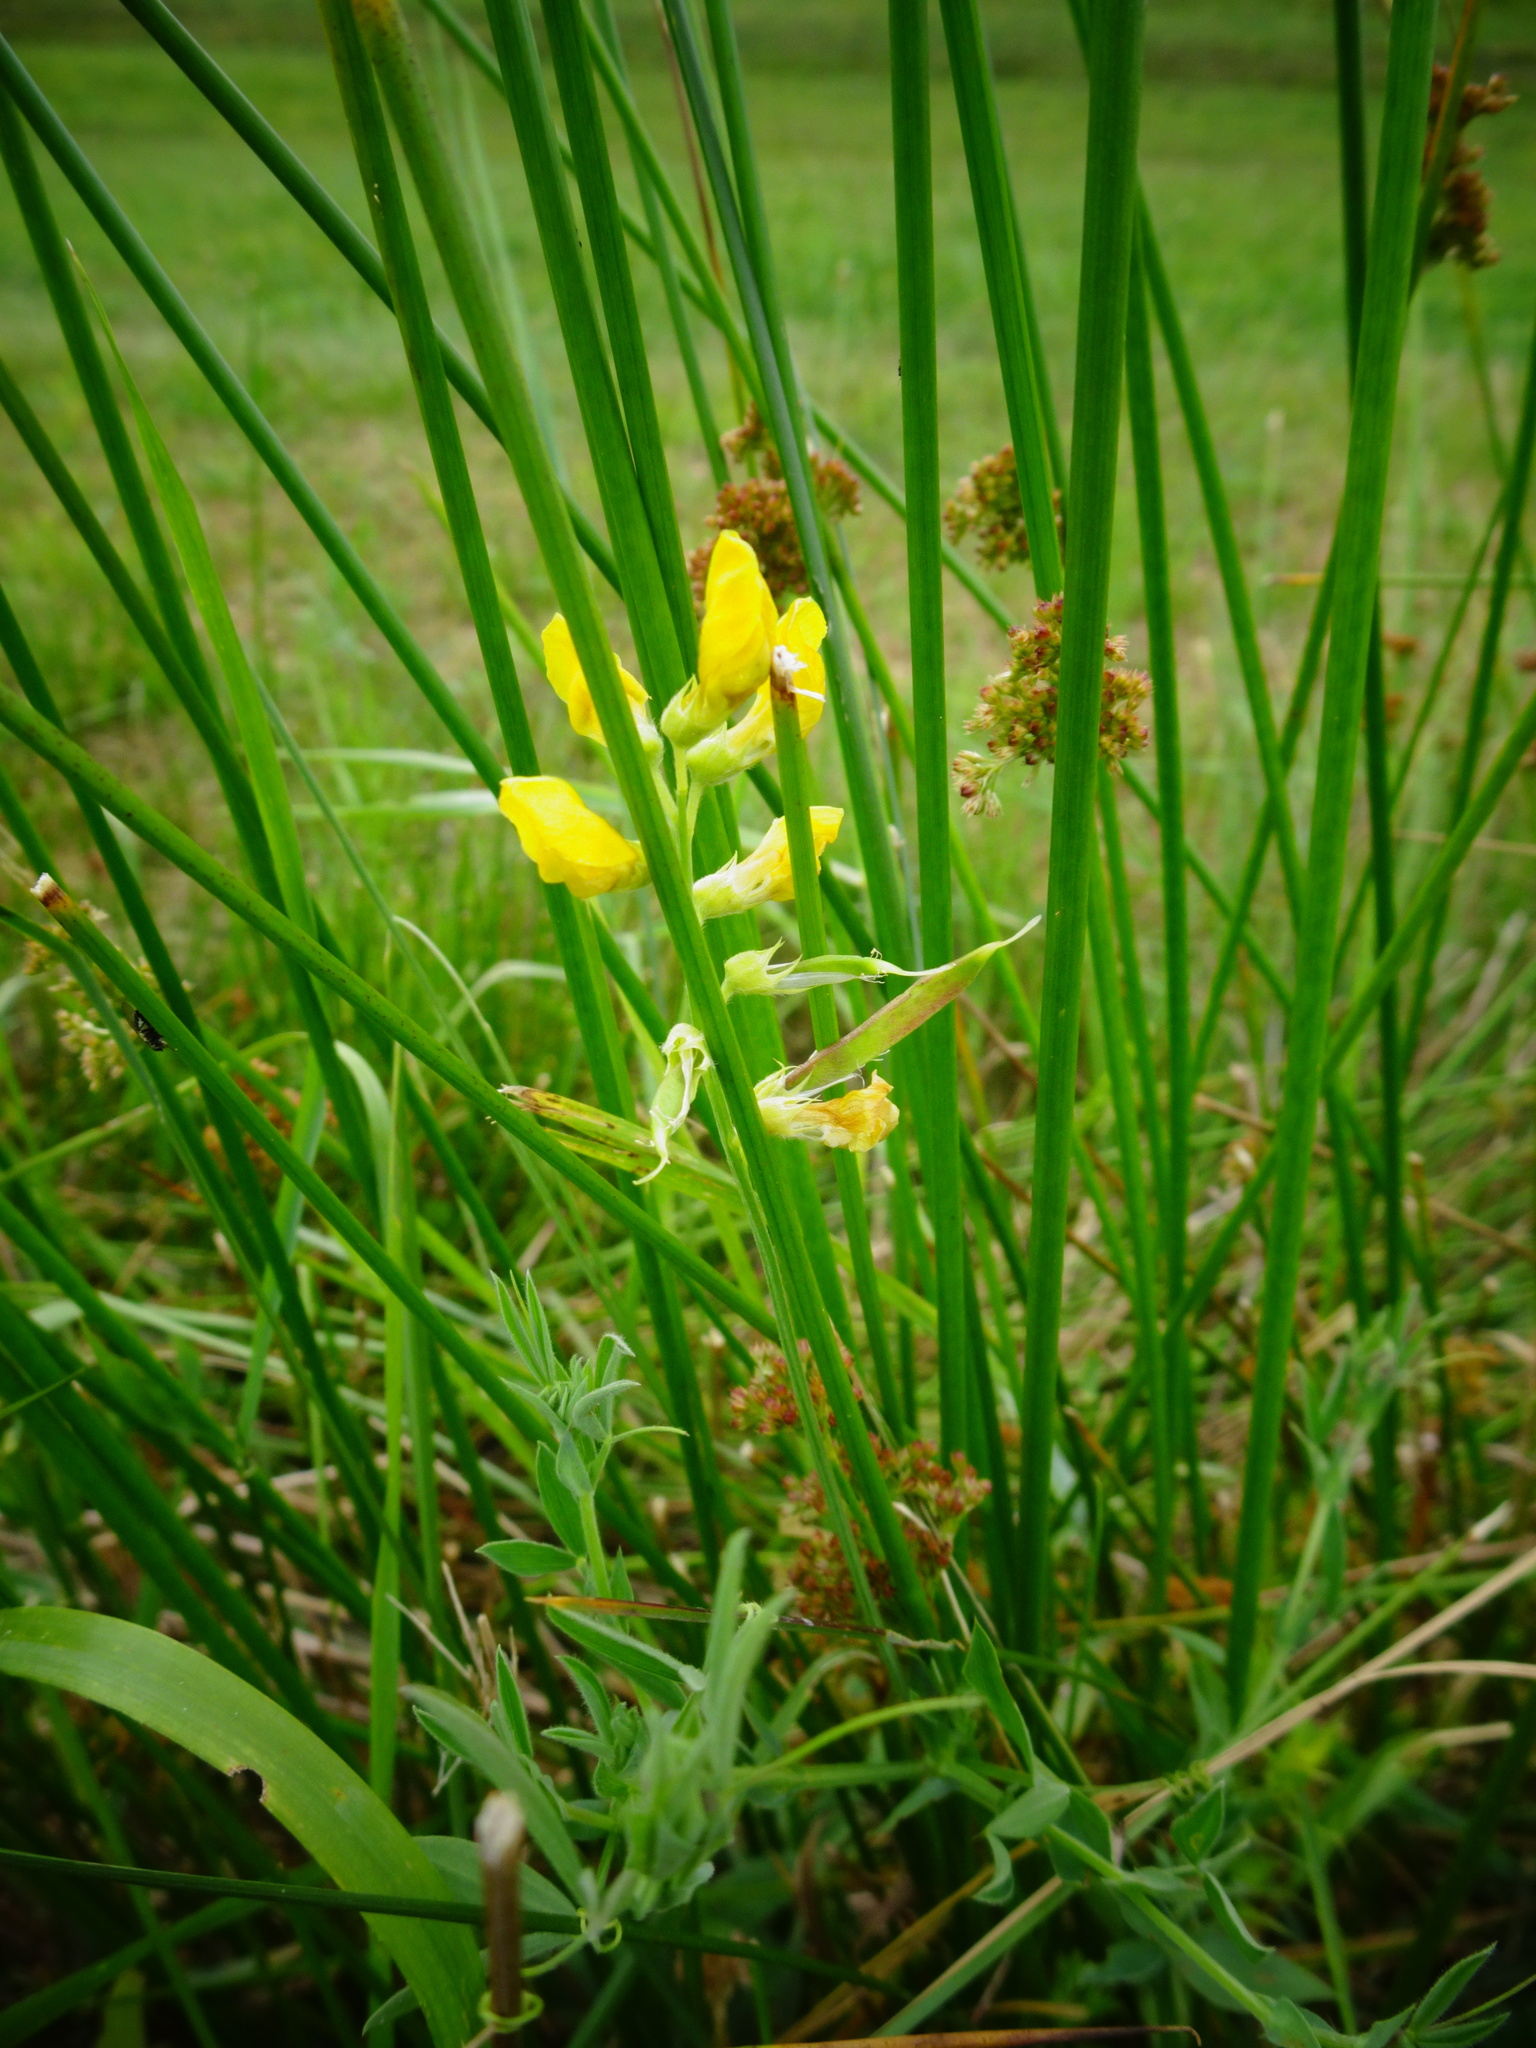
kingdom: Plantae
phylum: Tracheophyta
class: Magnoliopsida
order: Fabales
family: Fabaceae
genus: Lathyrus
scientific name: Lathyrus pratensis
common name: Meadow vetchling
